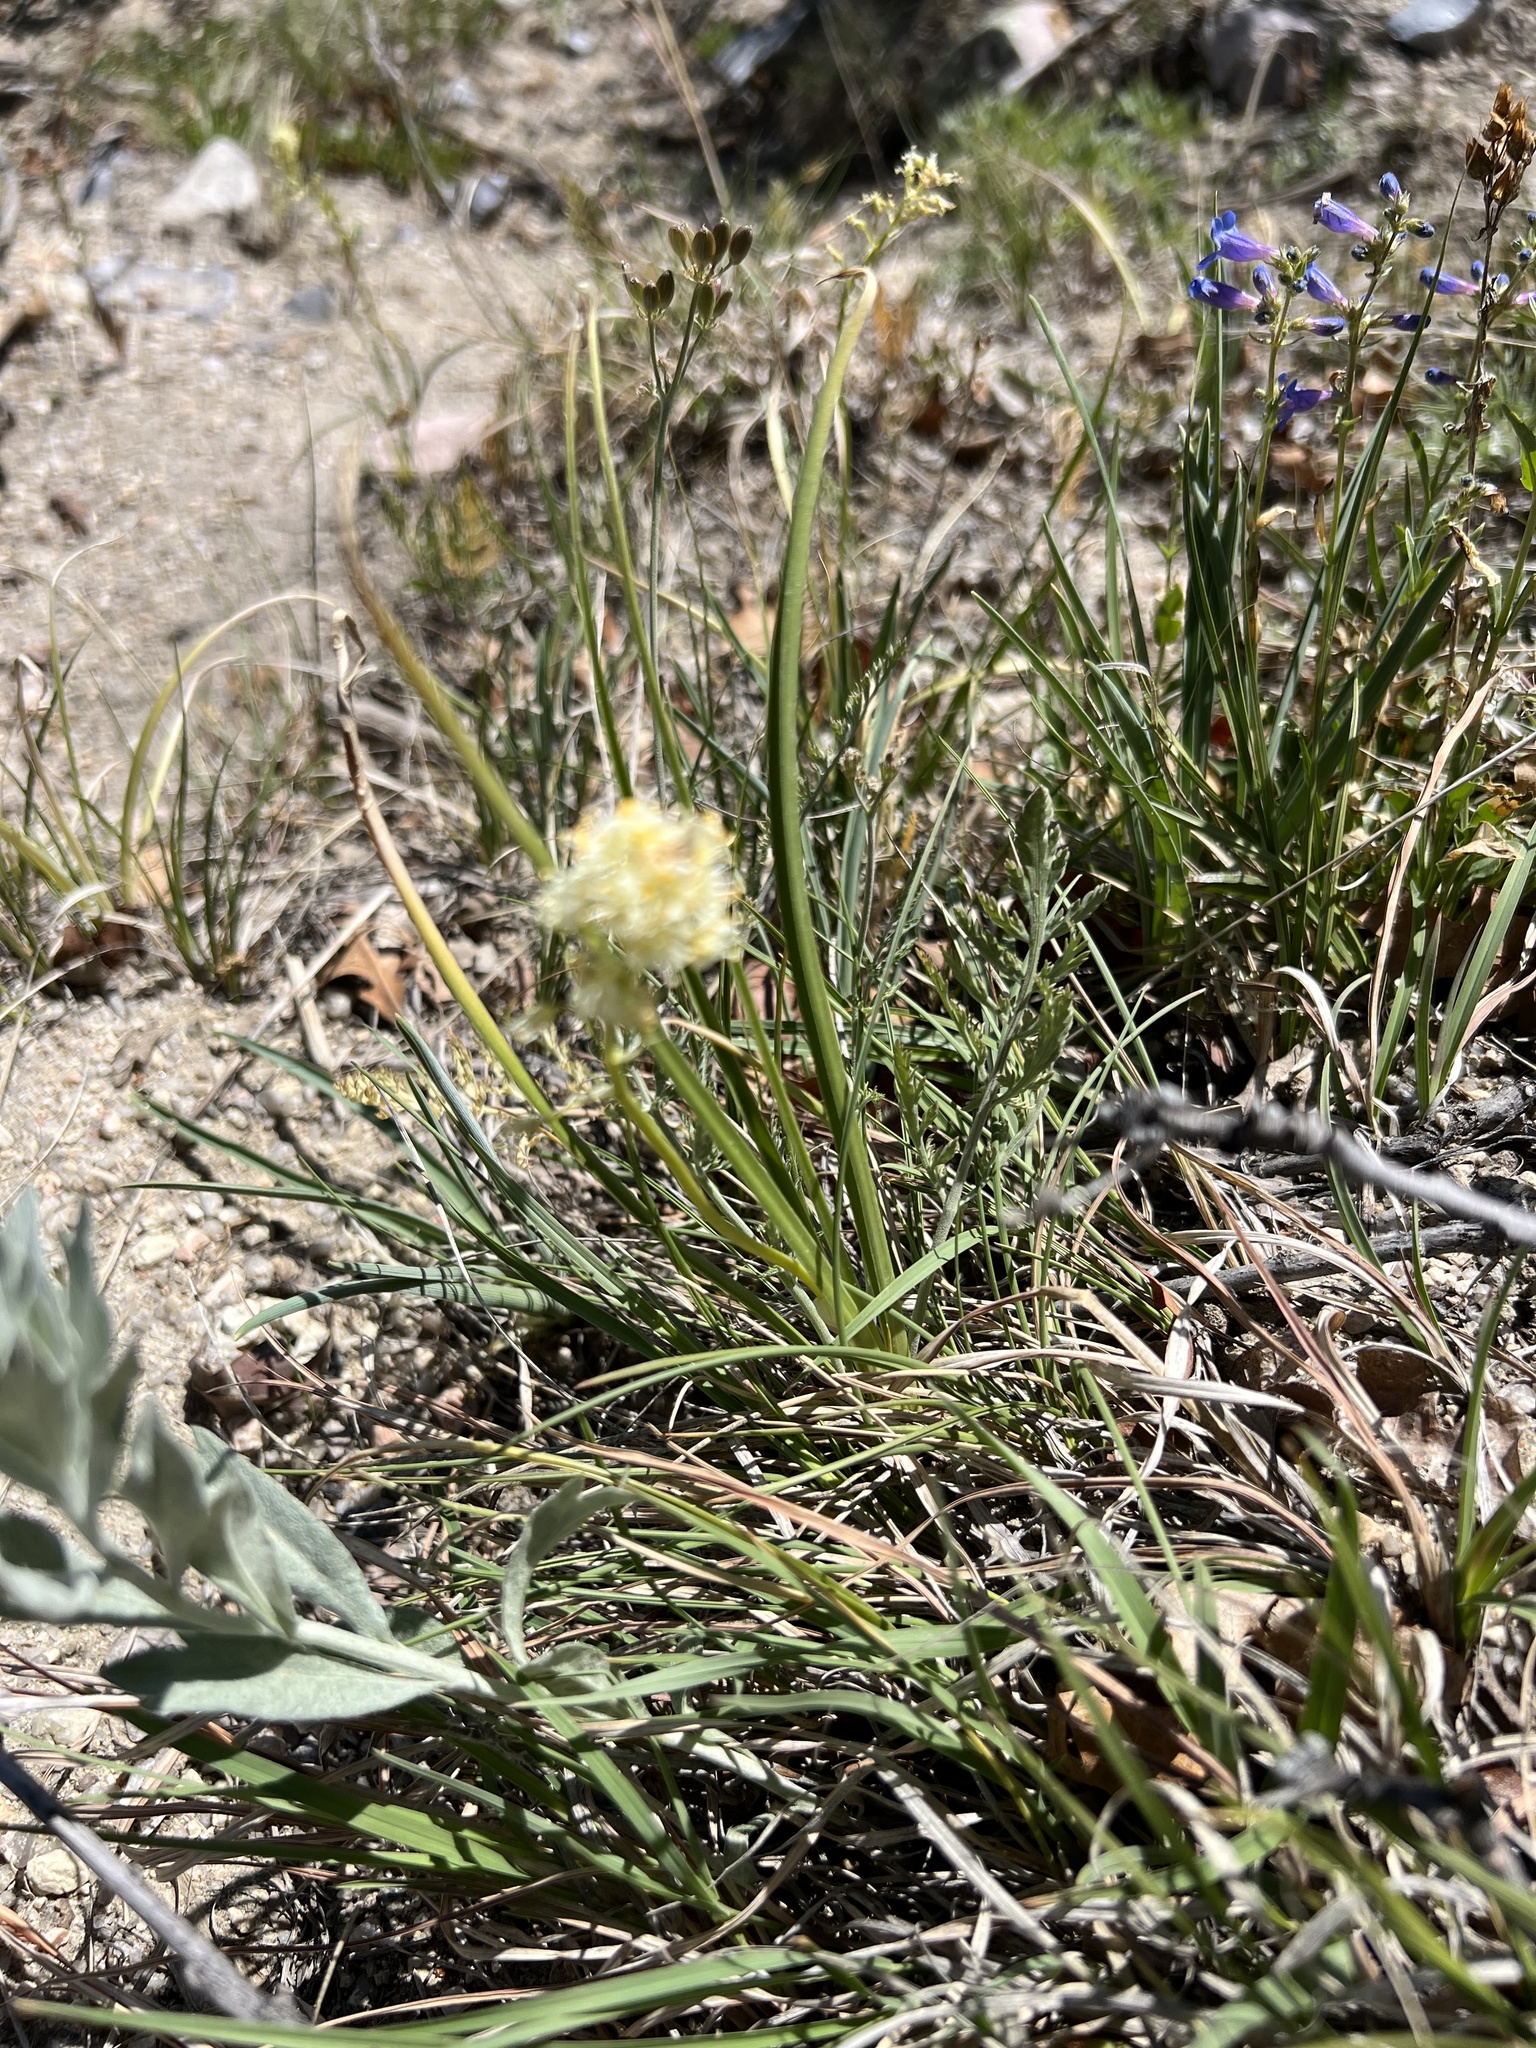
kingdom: Plantae
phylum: Tracheophyta
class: Liliopsida
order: Liliales
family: Melanthiaceae
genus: Toxicoscordion
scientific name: Toxicoscordion venenosum
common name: Meadow death camas
